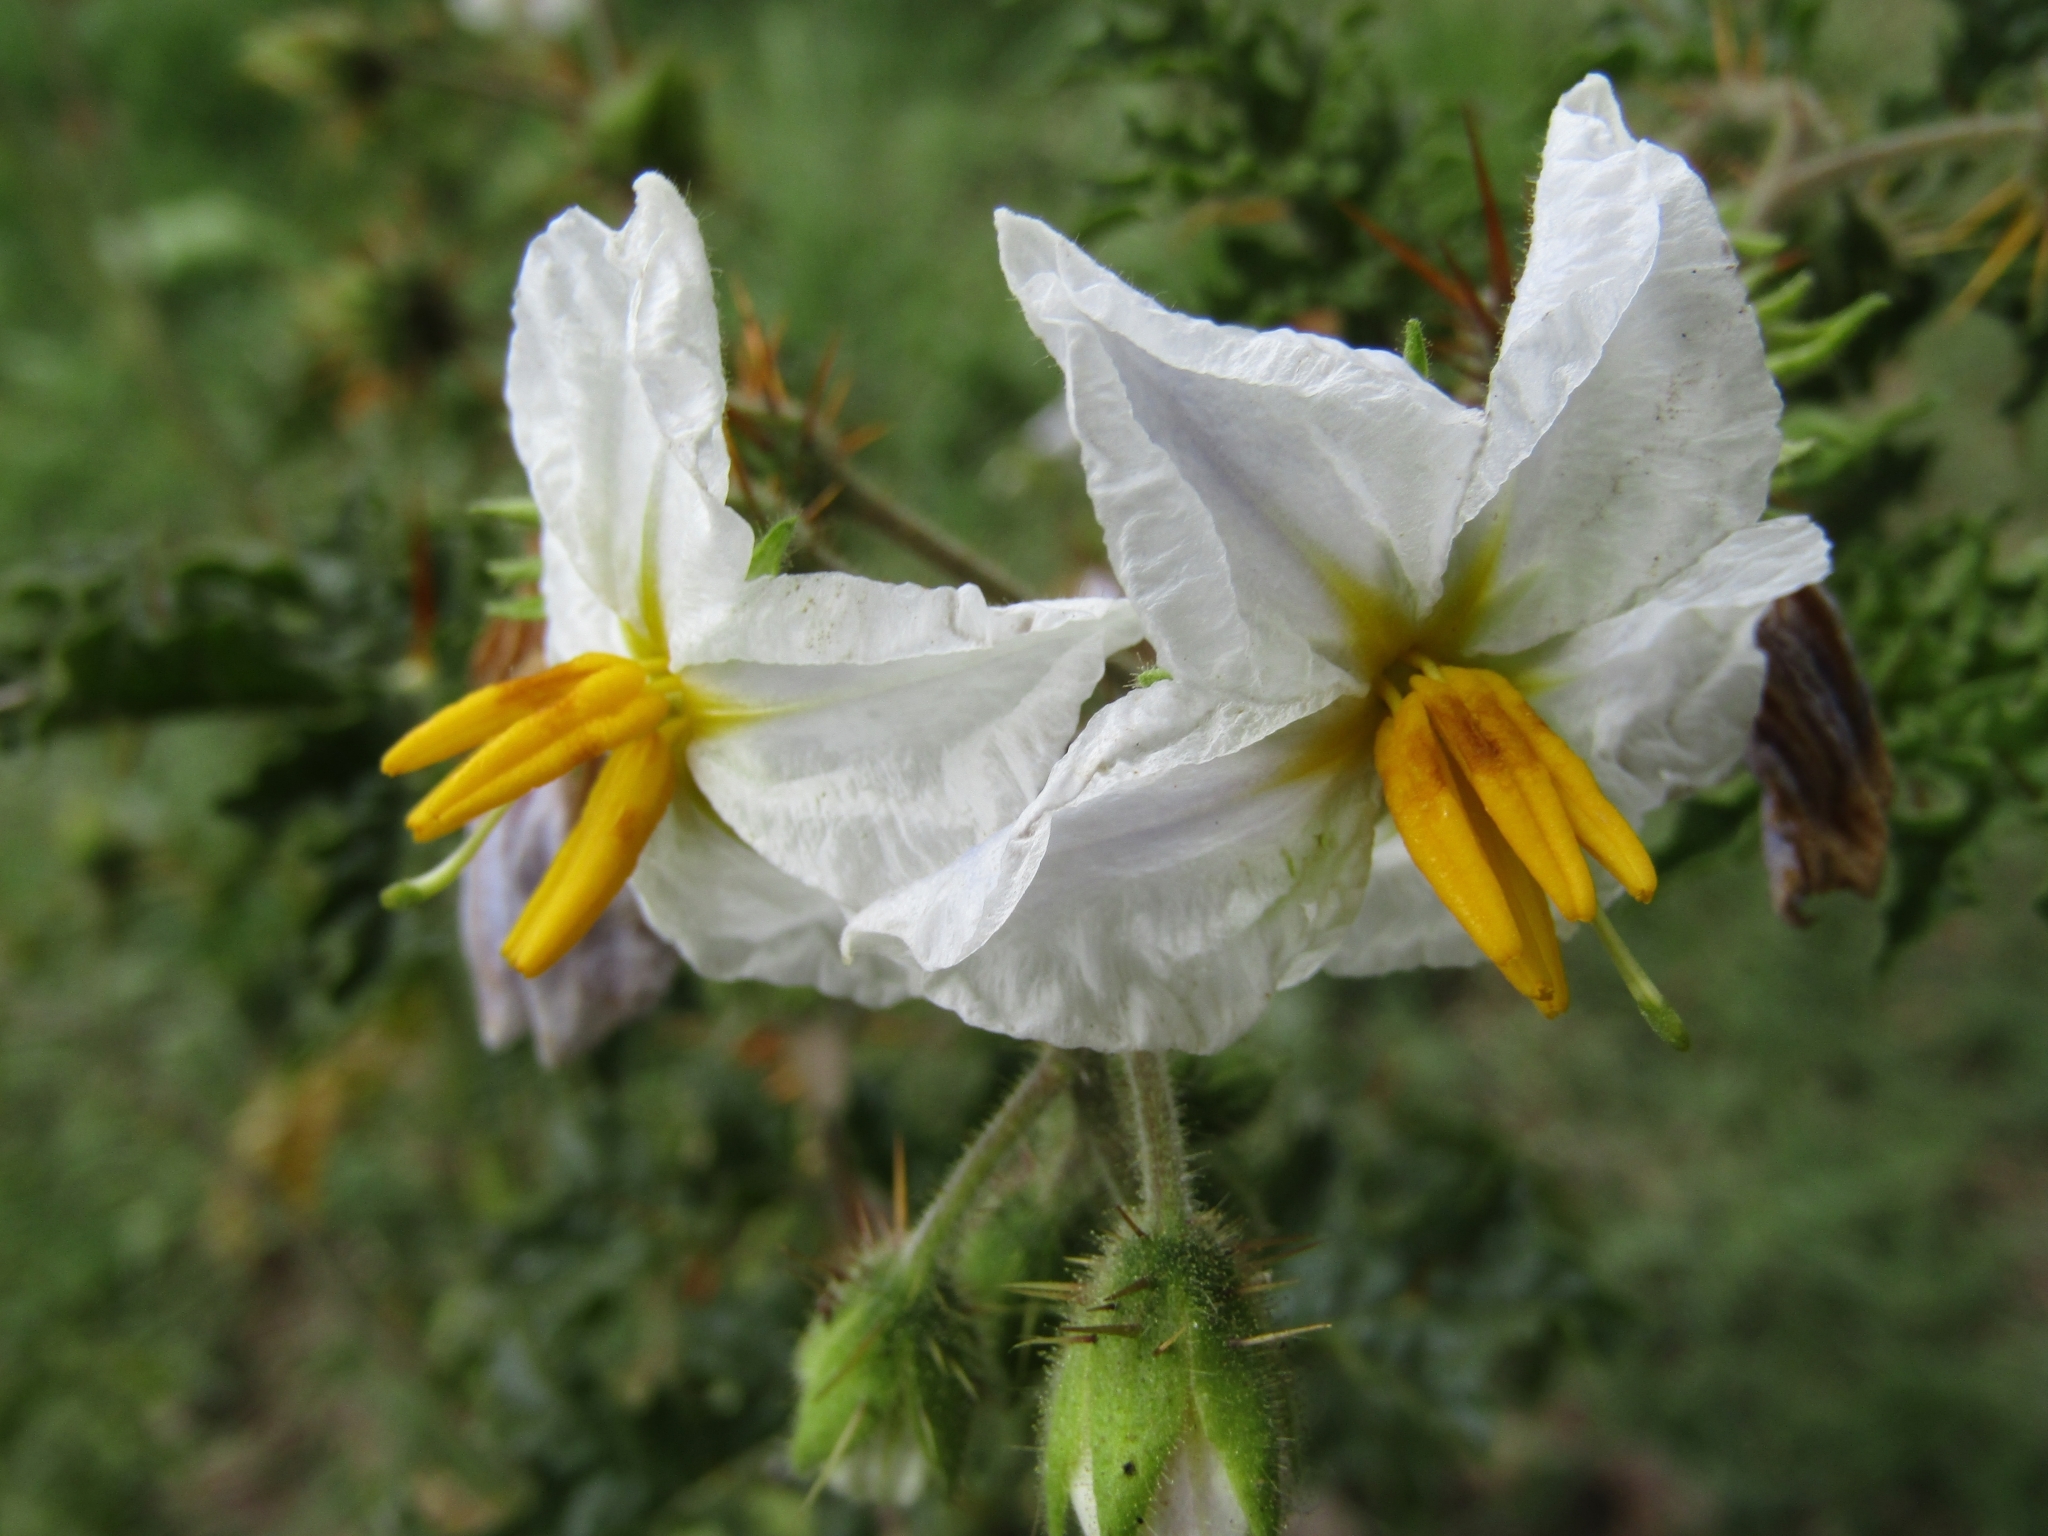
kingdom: Plantae
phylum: Tracheophyta
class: Magnoliopsida
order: Solanales
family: Solanaceae
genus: Solanum
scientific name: Solanum sisymbriifolium
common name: Red buffalo-bur
